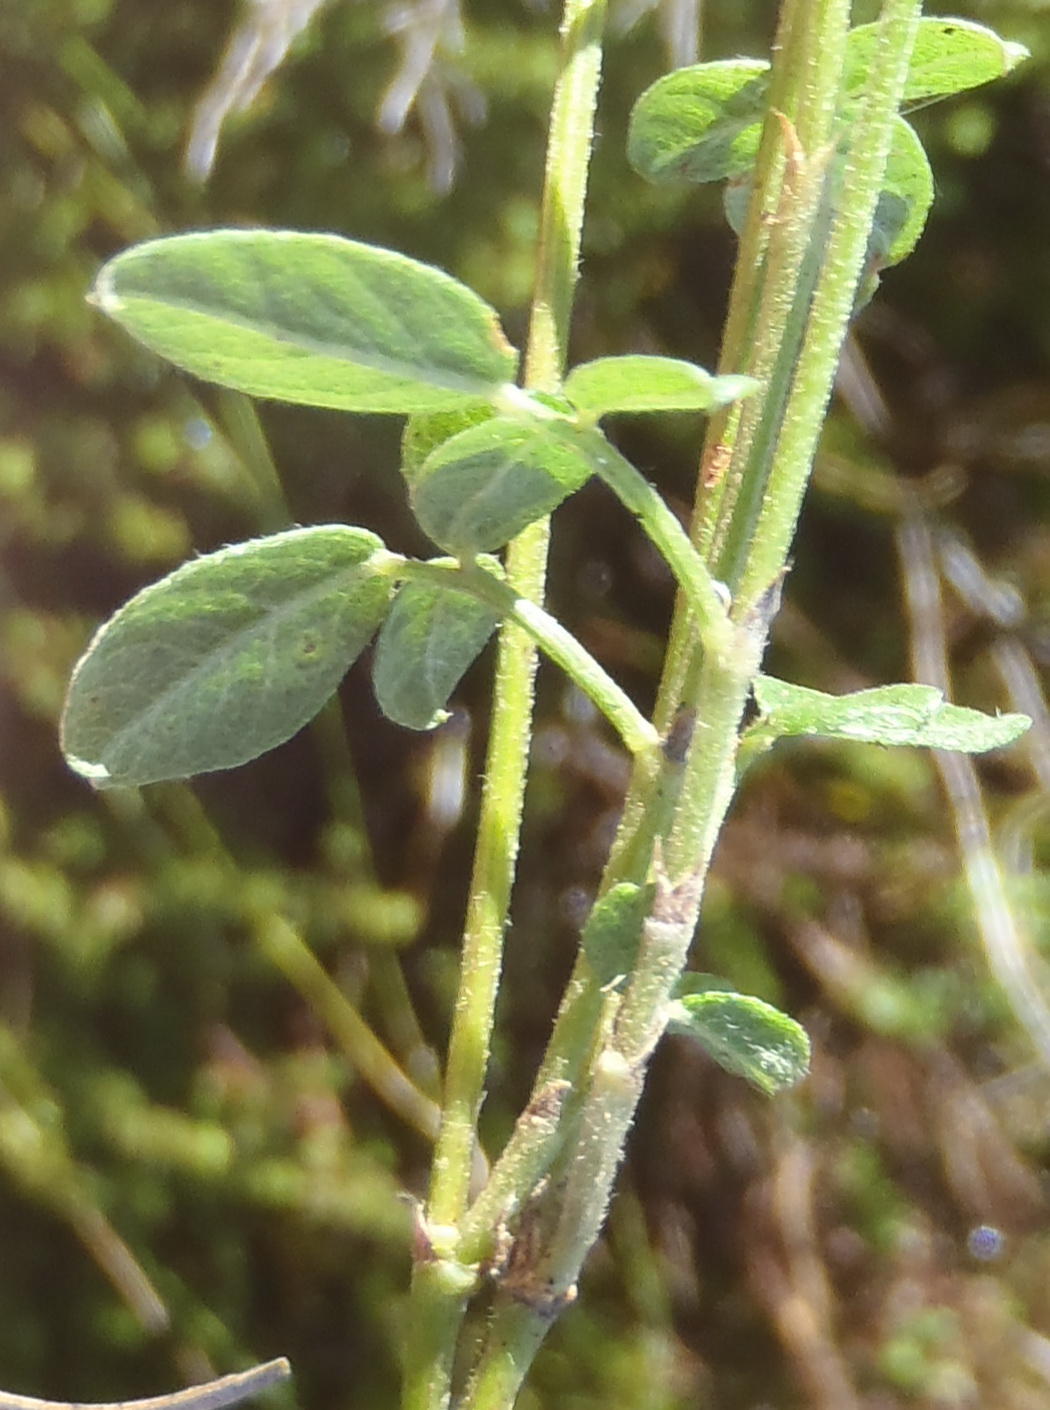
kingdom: Plantae
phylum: Tracheophyta
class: Magnoliopsida
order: Fabales
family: Fabaceae
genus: Psoralea
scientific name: Psoralea swartbergensis
